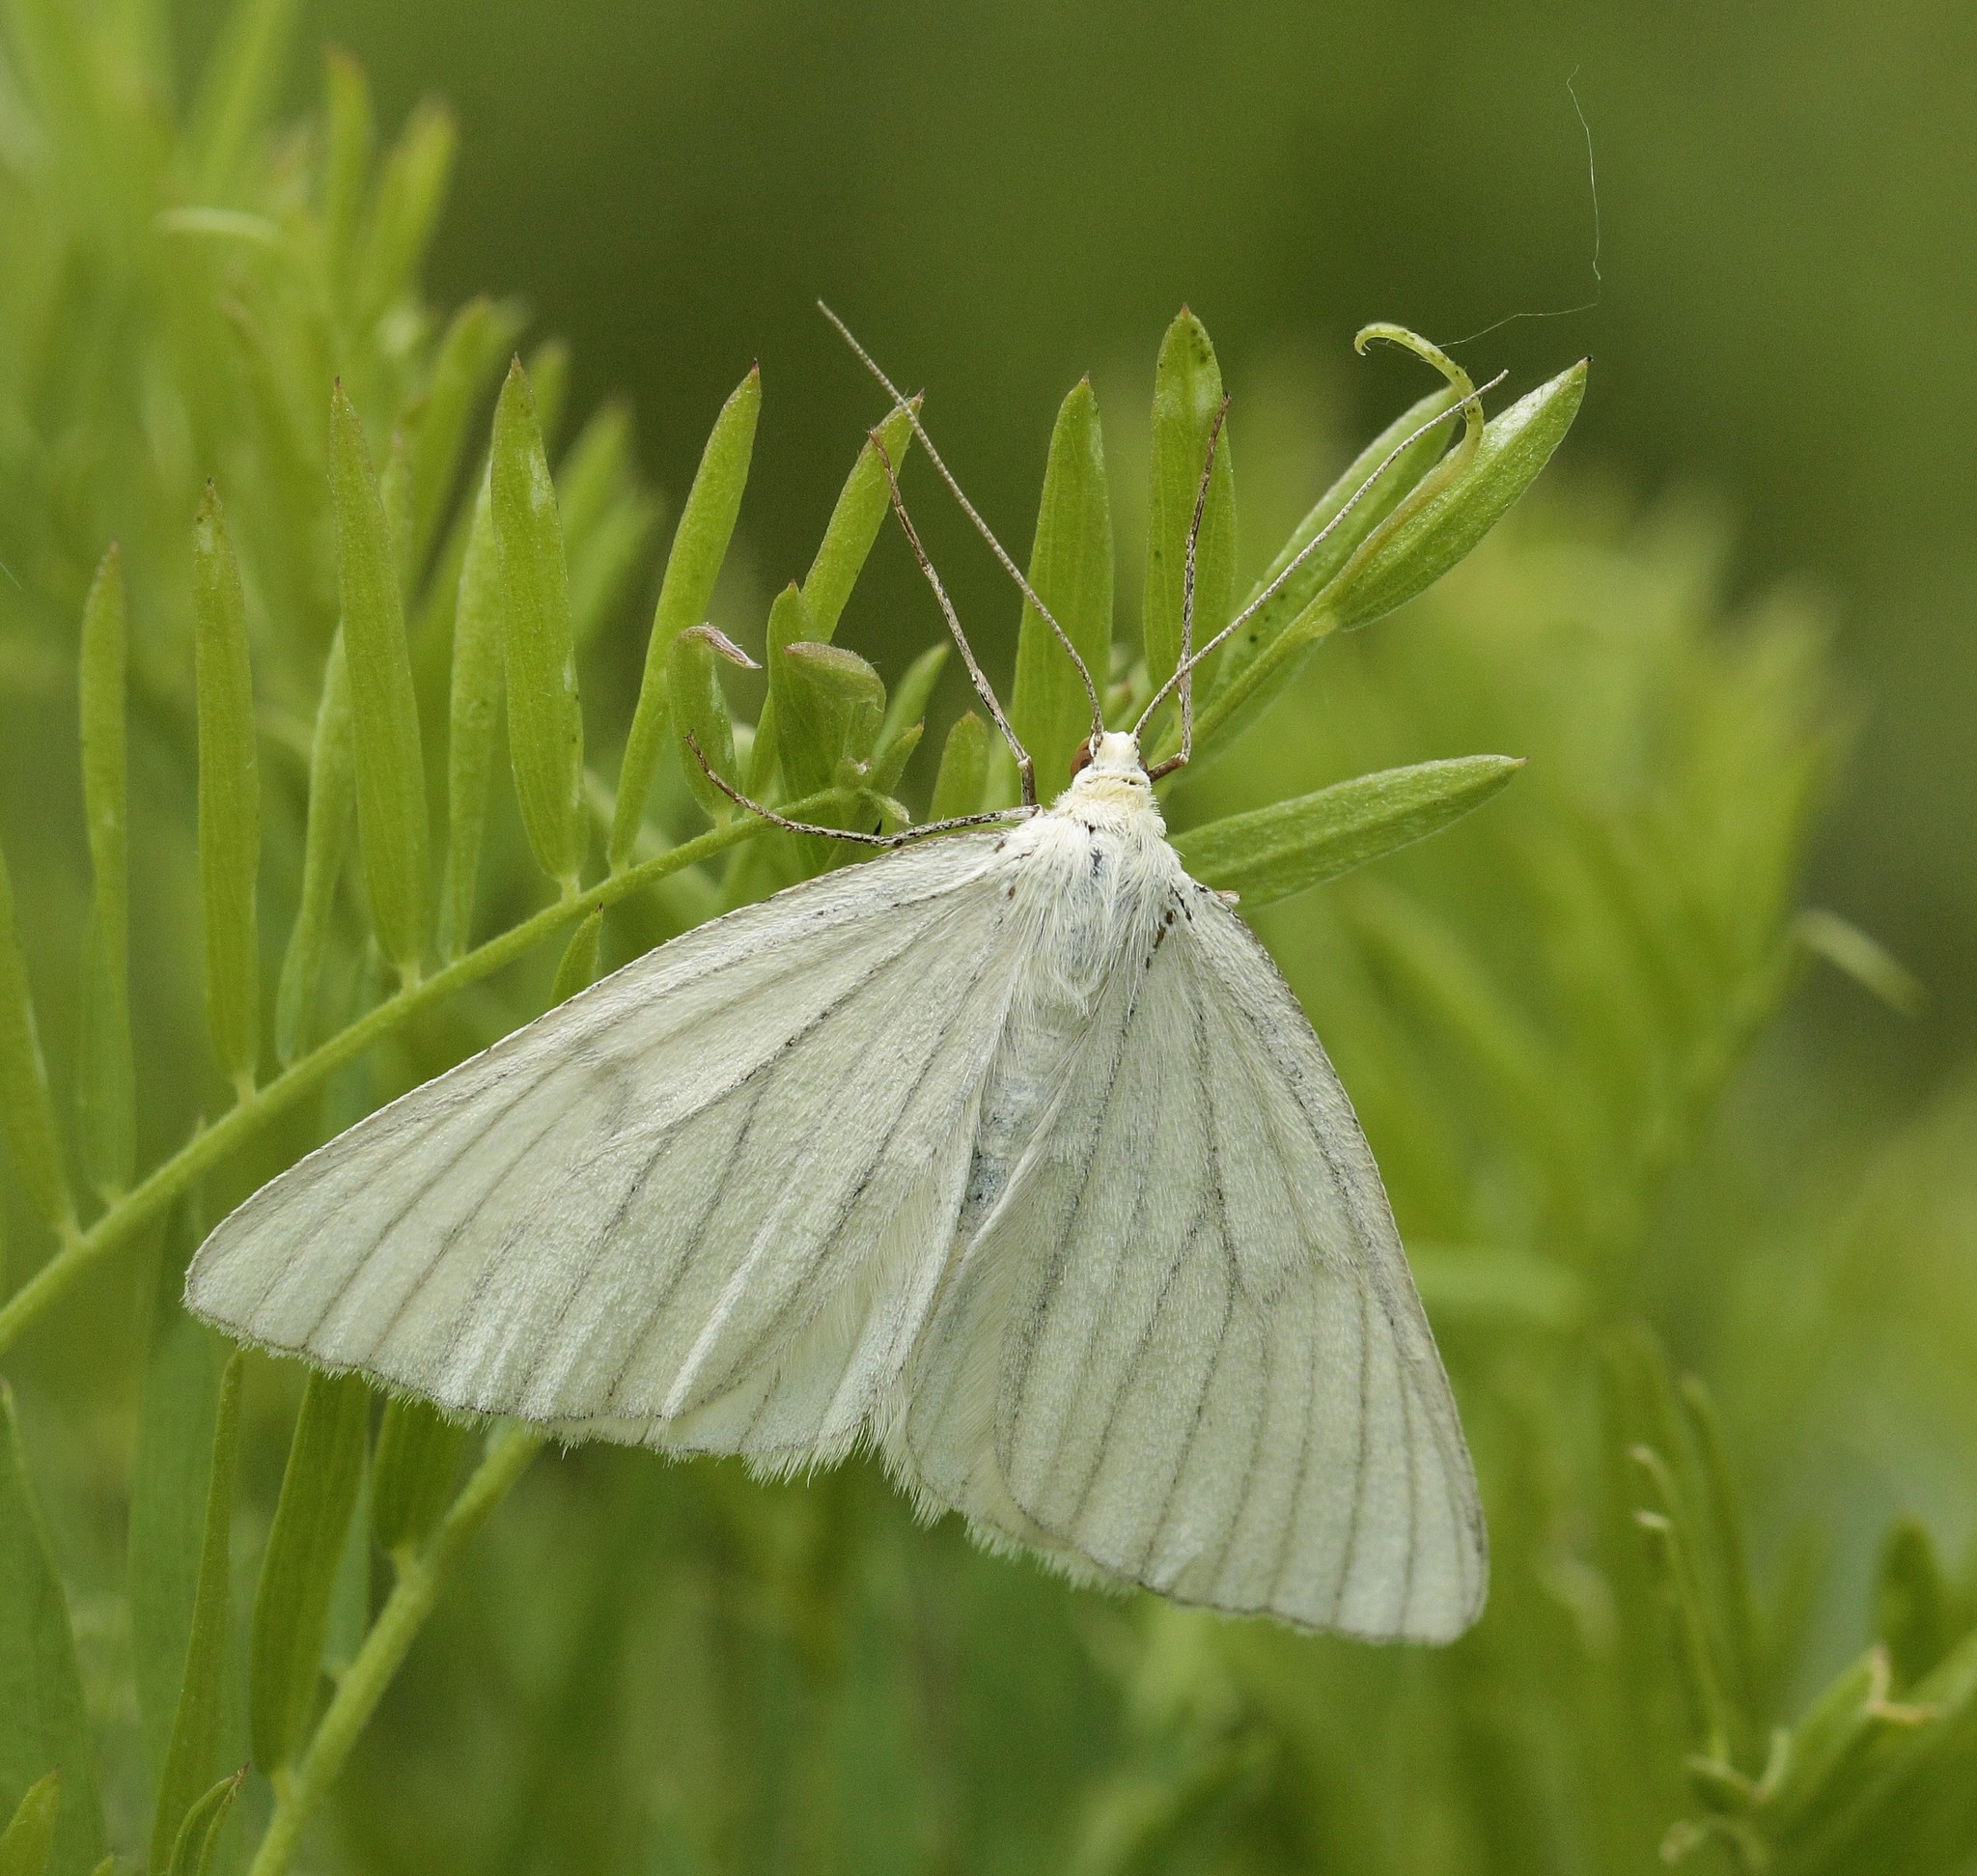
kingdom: Animalia
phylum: Arthropoda
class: Insecta
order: Lepidoptera
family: Geometridae
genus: Siona
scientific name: Siona lineata
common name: Black-veined moth
